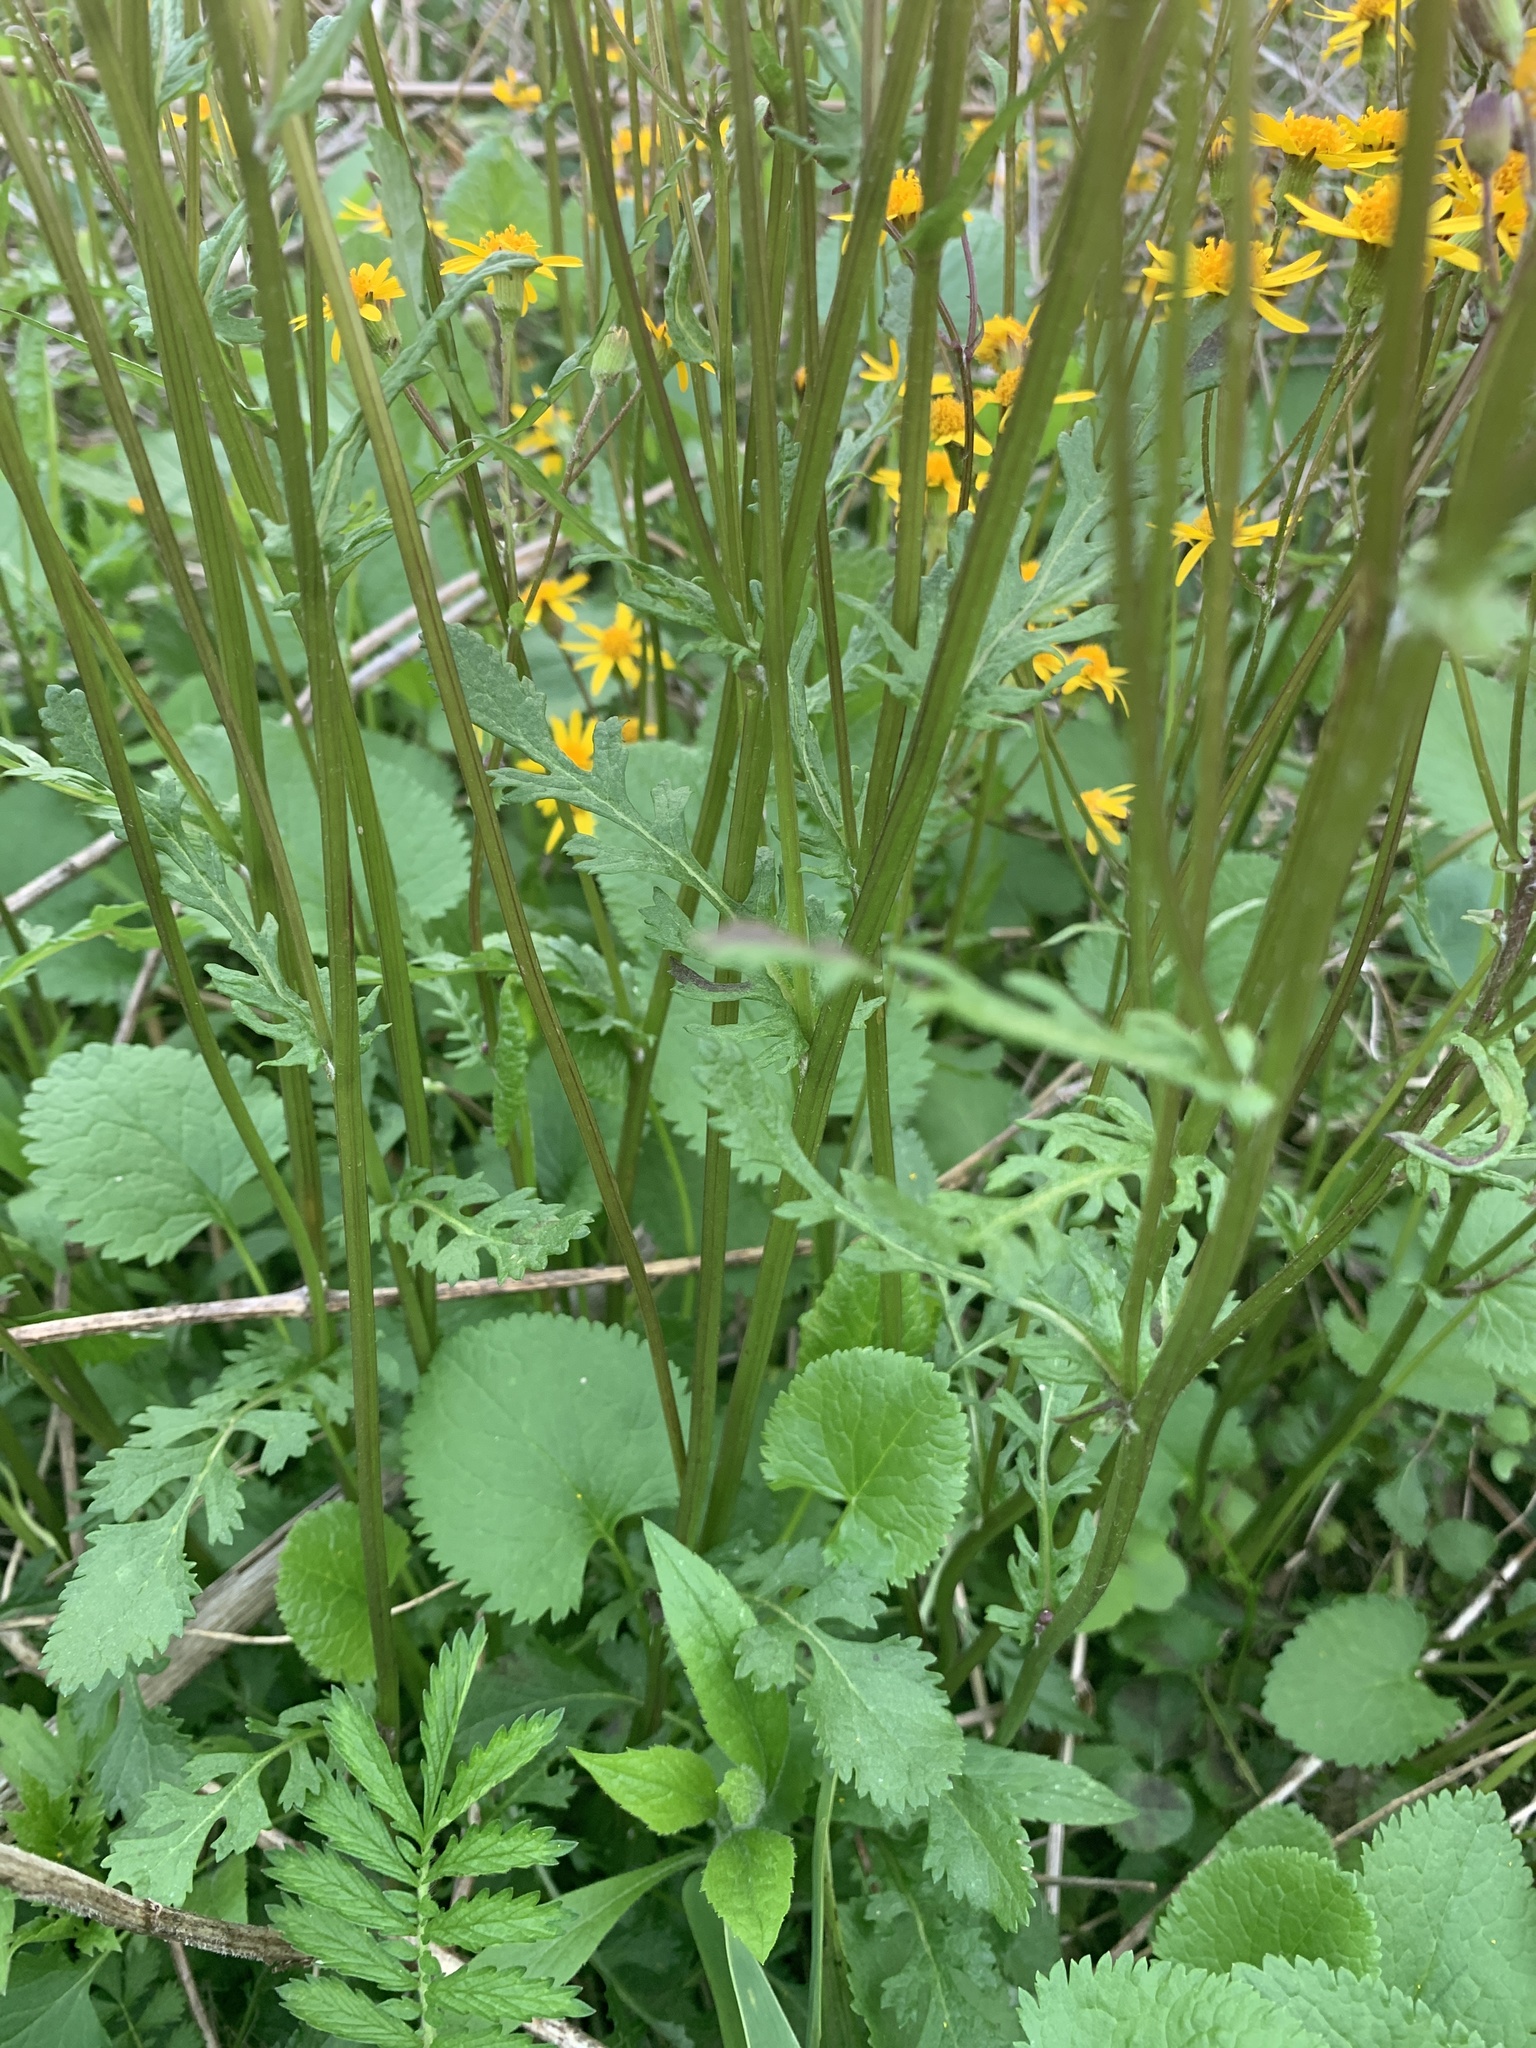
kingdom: Plantae
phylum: Tracheophyta
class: Magnoliopsida
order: Asterales
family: Asteraceae
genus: Packera
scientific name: Packera aurea
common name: Golden groundsel
